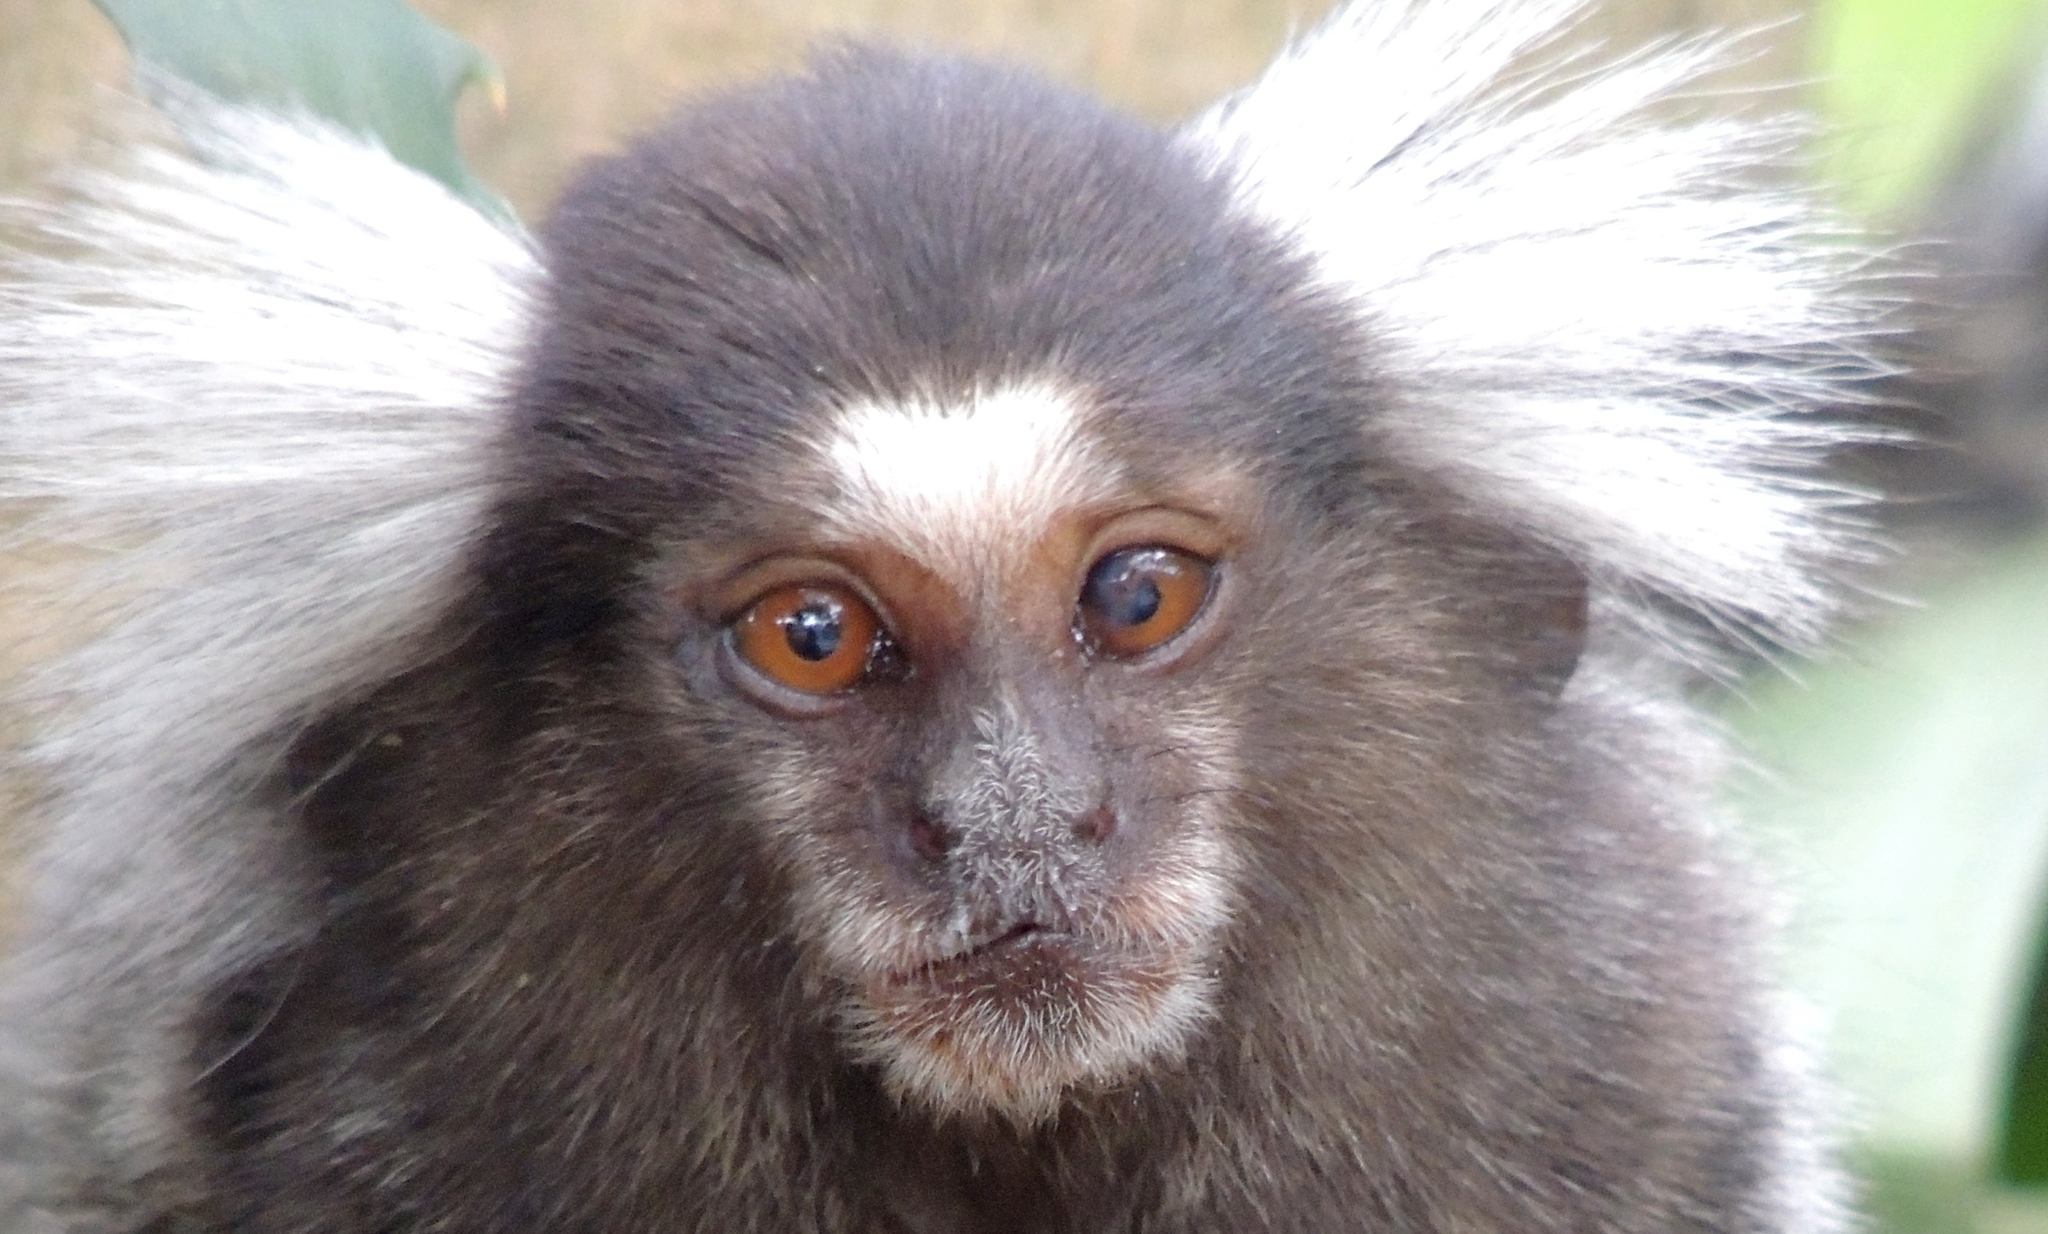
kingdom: Animalia
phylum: Chordata
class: Mammalia
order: Primates
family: Callitrichidae
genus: Callithrix
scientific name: Callithrix jacchus
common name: Common marmoset
